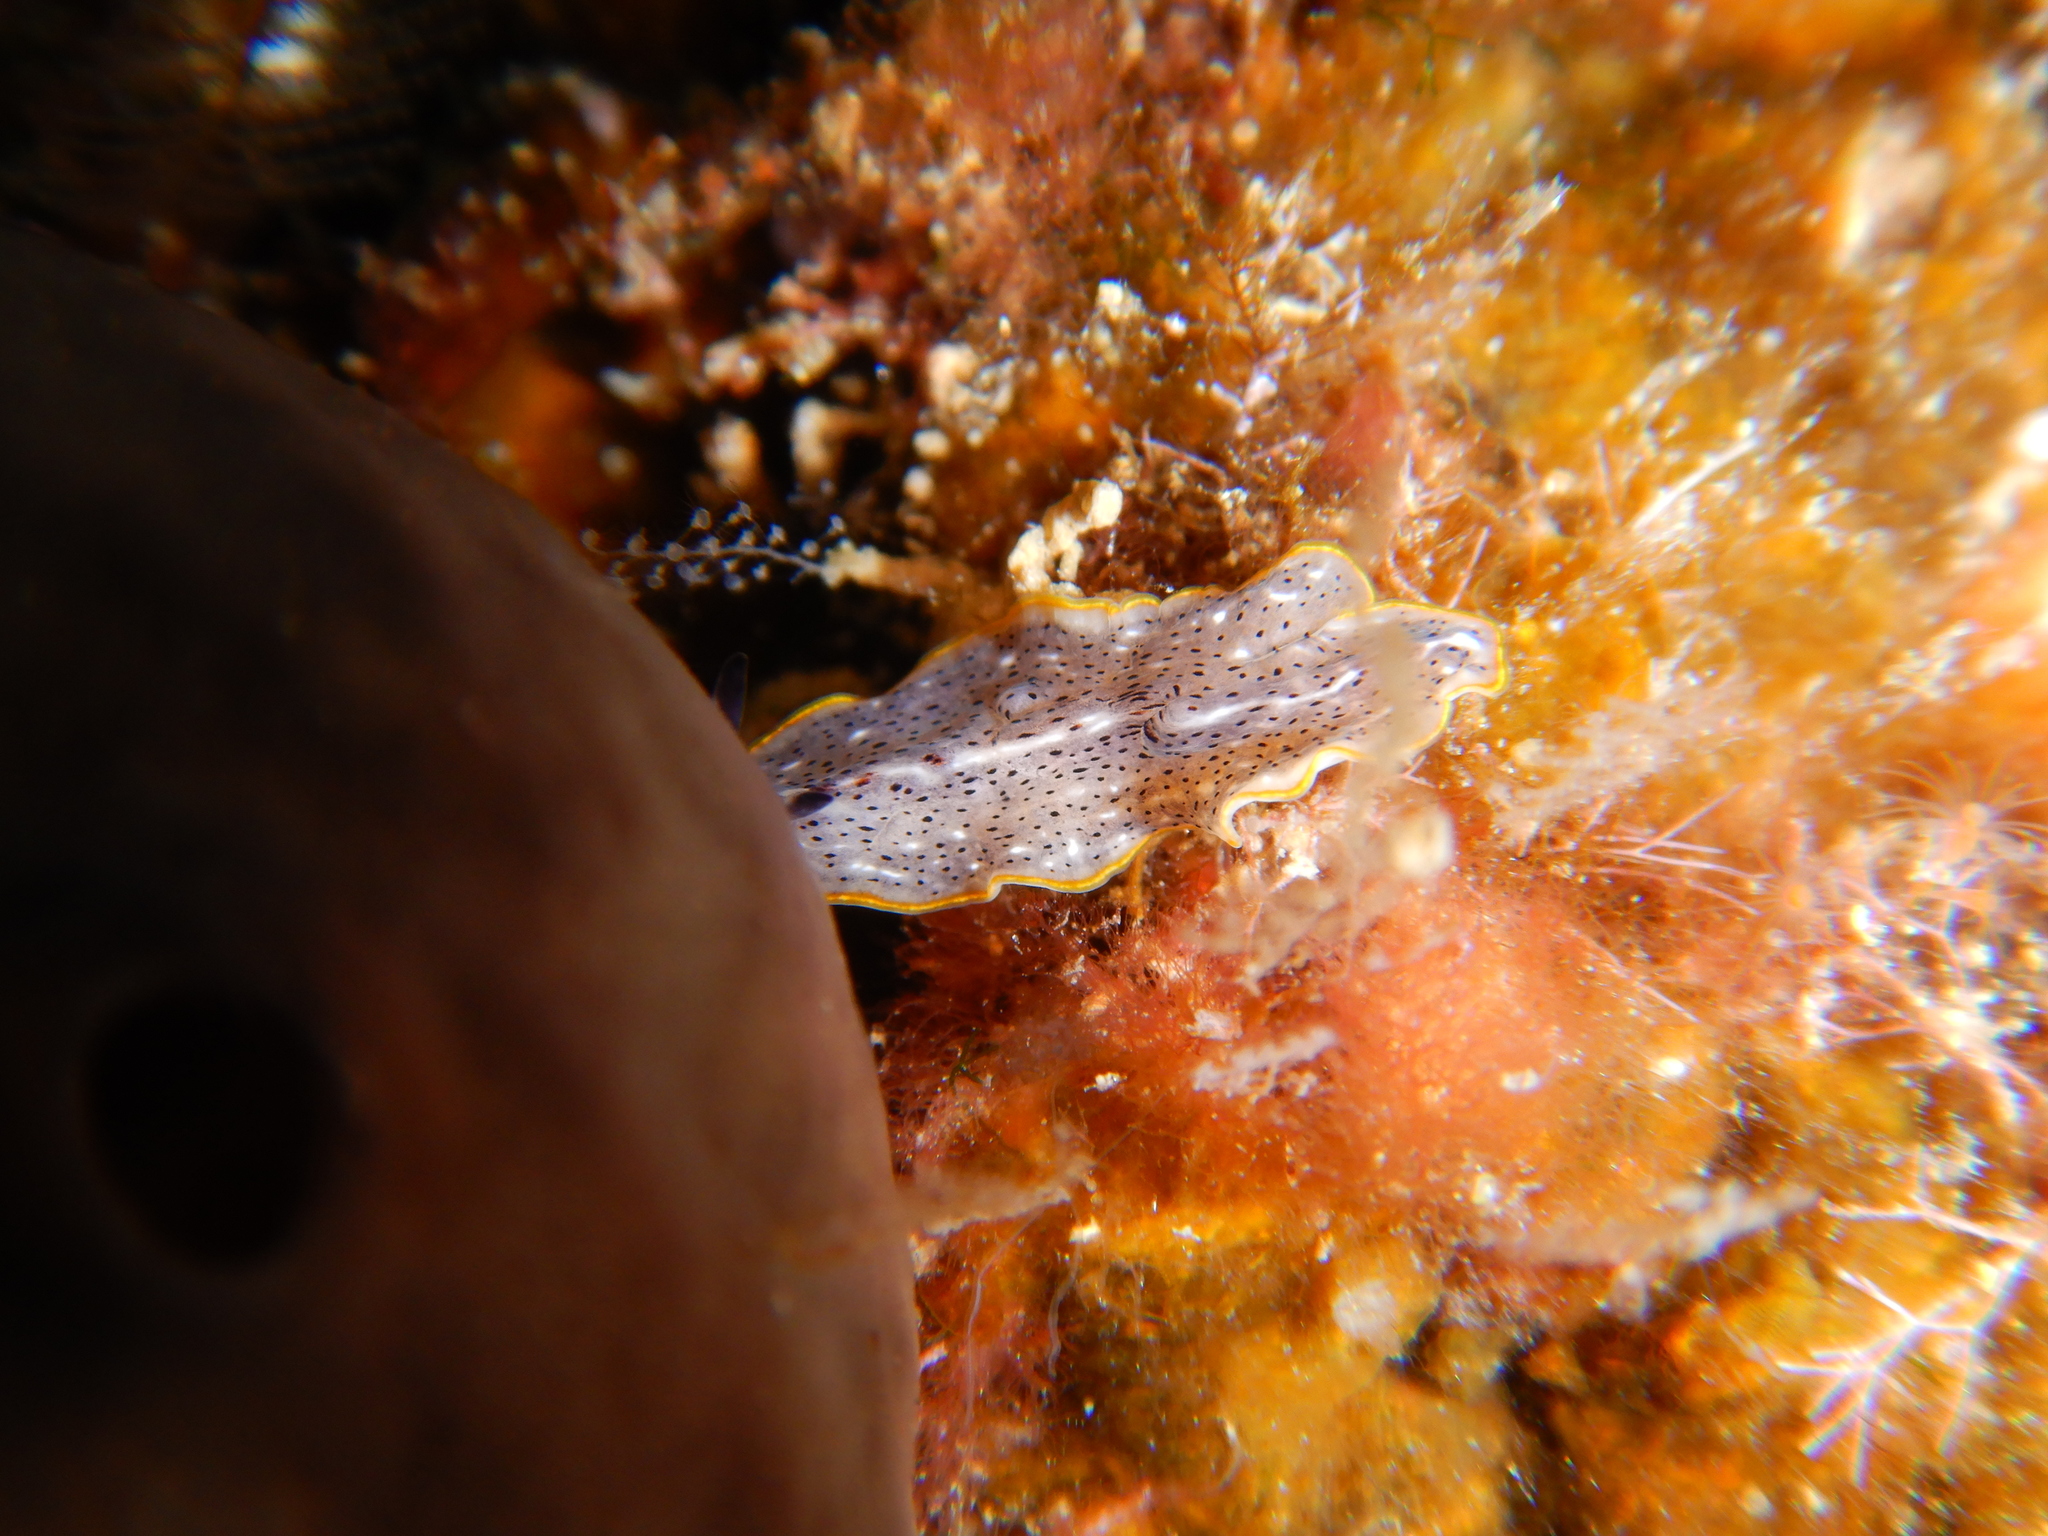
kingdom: Animalia
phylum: Platyhelminthes
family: Euryleptidae
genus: Prostheceraeus
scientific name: Prostheceraeus moseleyi
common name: Moseley's flatworm
